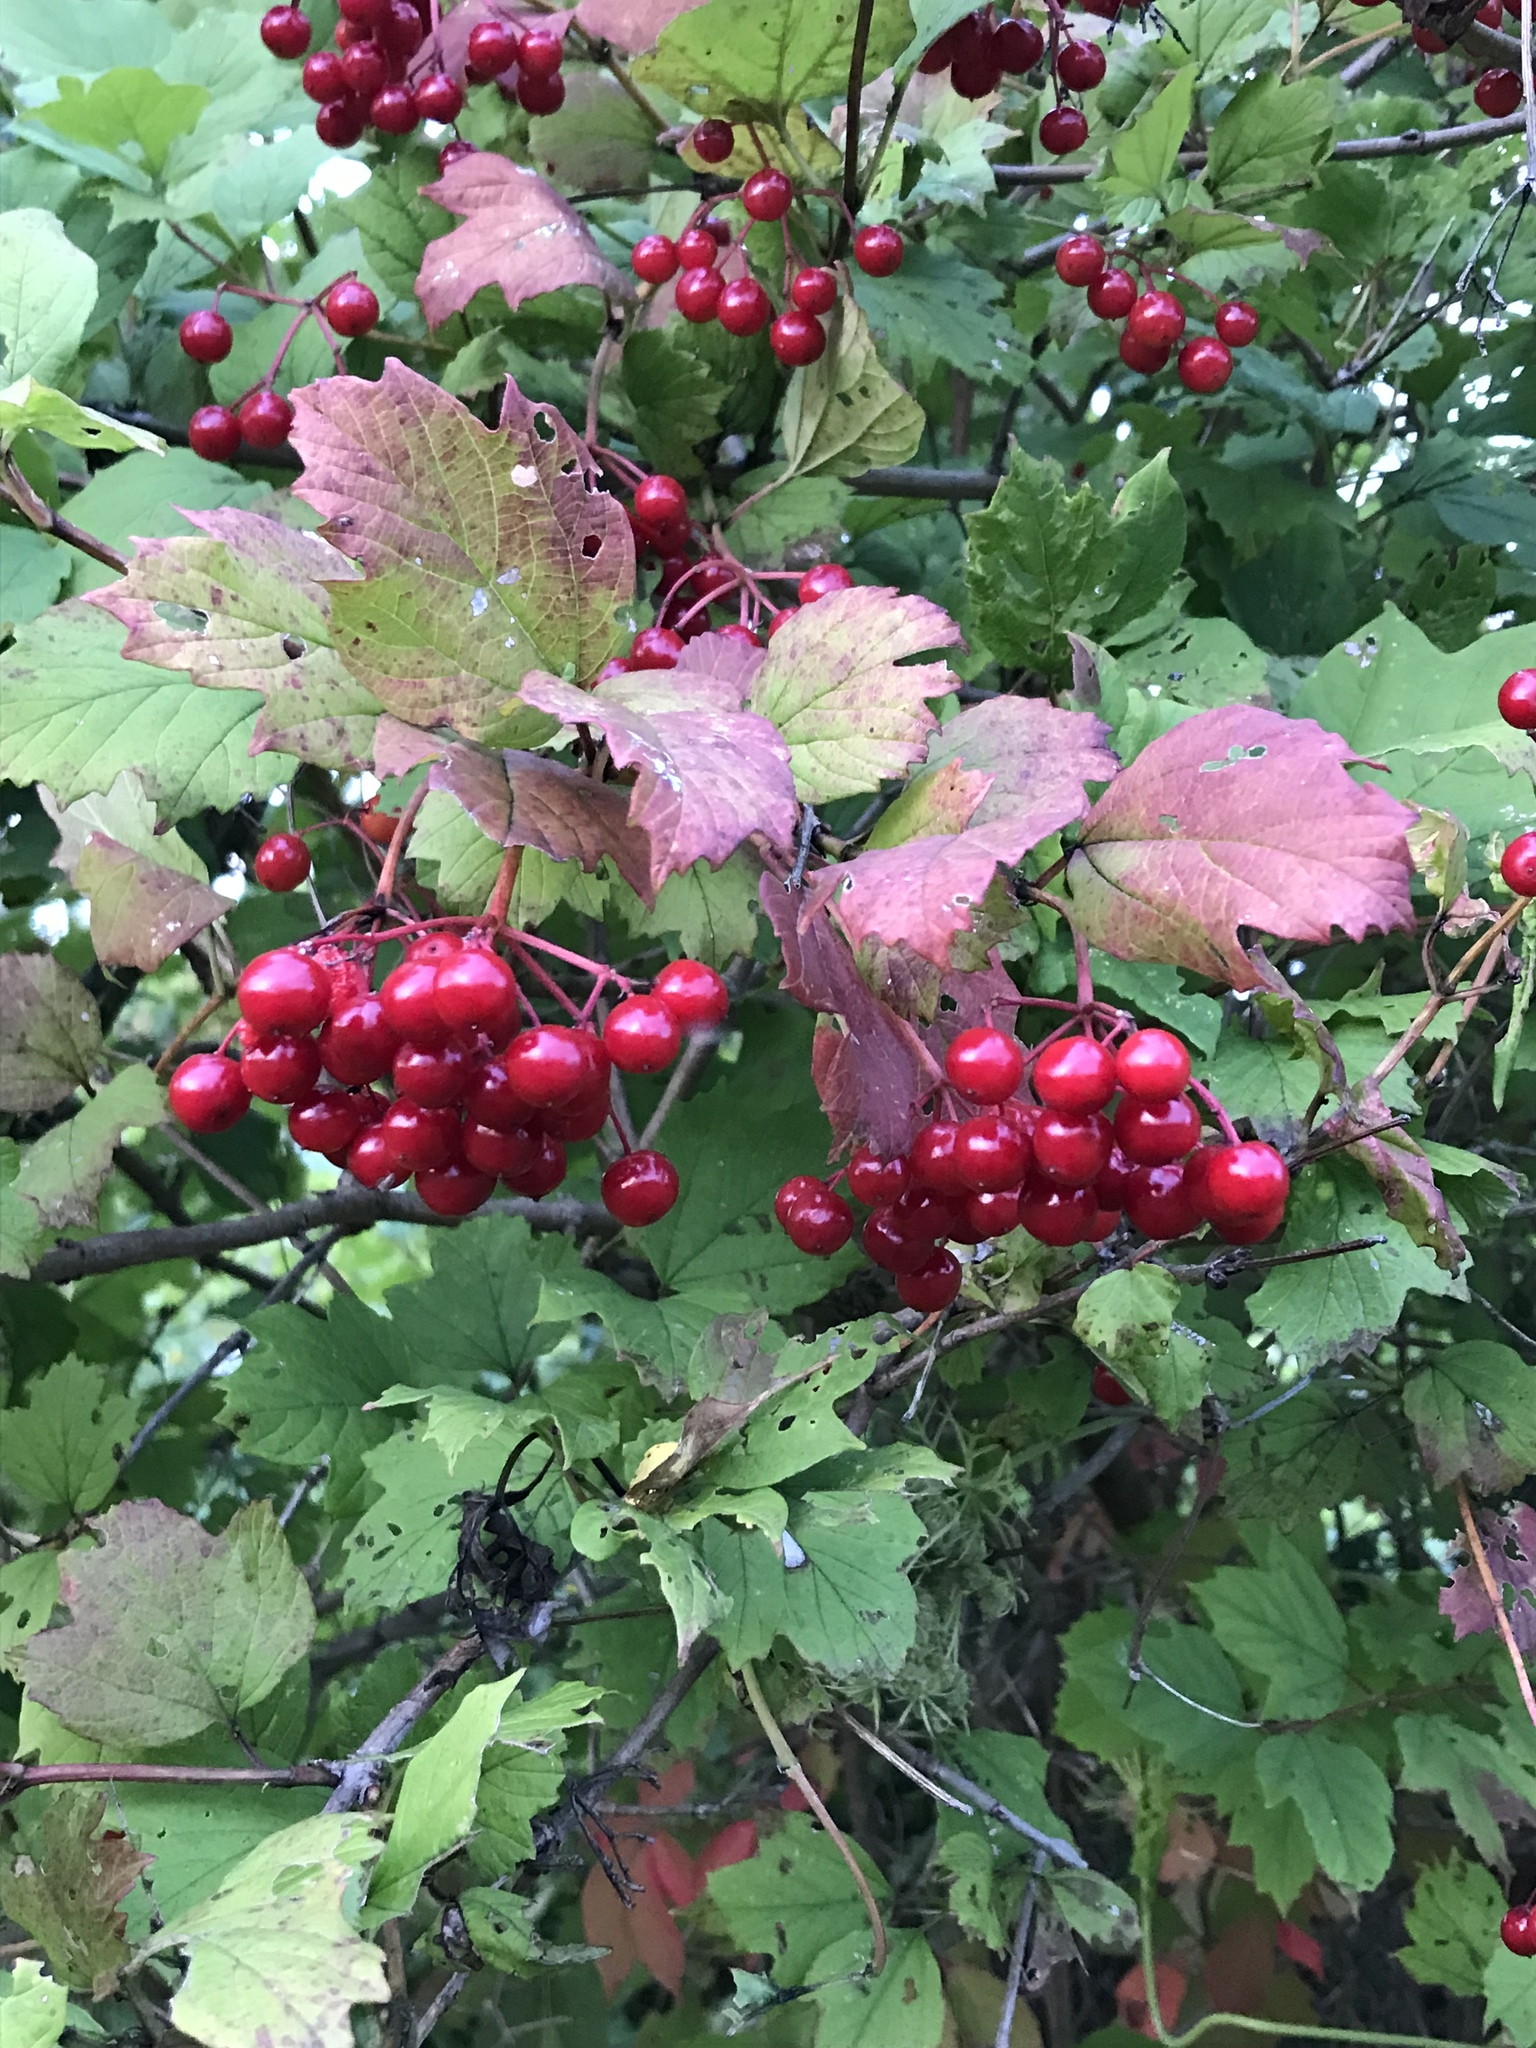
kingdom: Plantae
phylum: Tracheophyta
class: Magnoliopsida
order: Dipsacales
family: Viburnaceae
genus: Viburnum
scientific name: Viburnum opulus
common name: Guelder-rose
